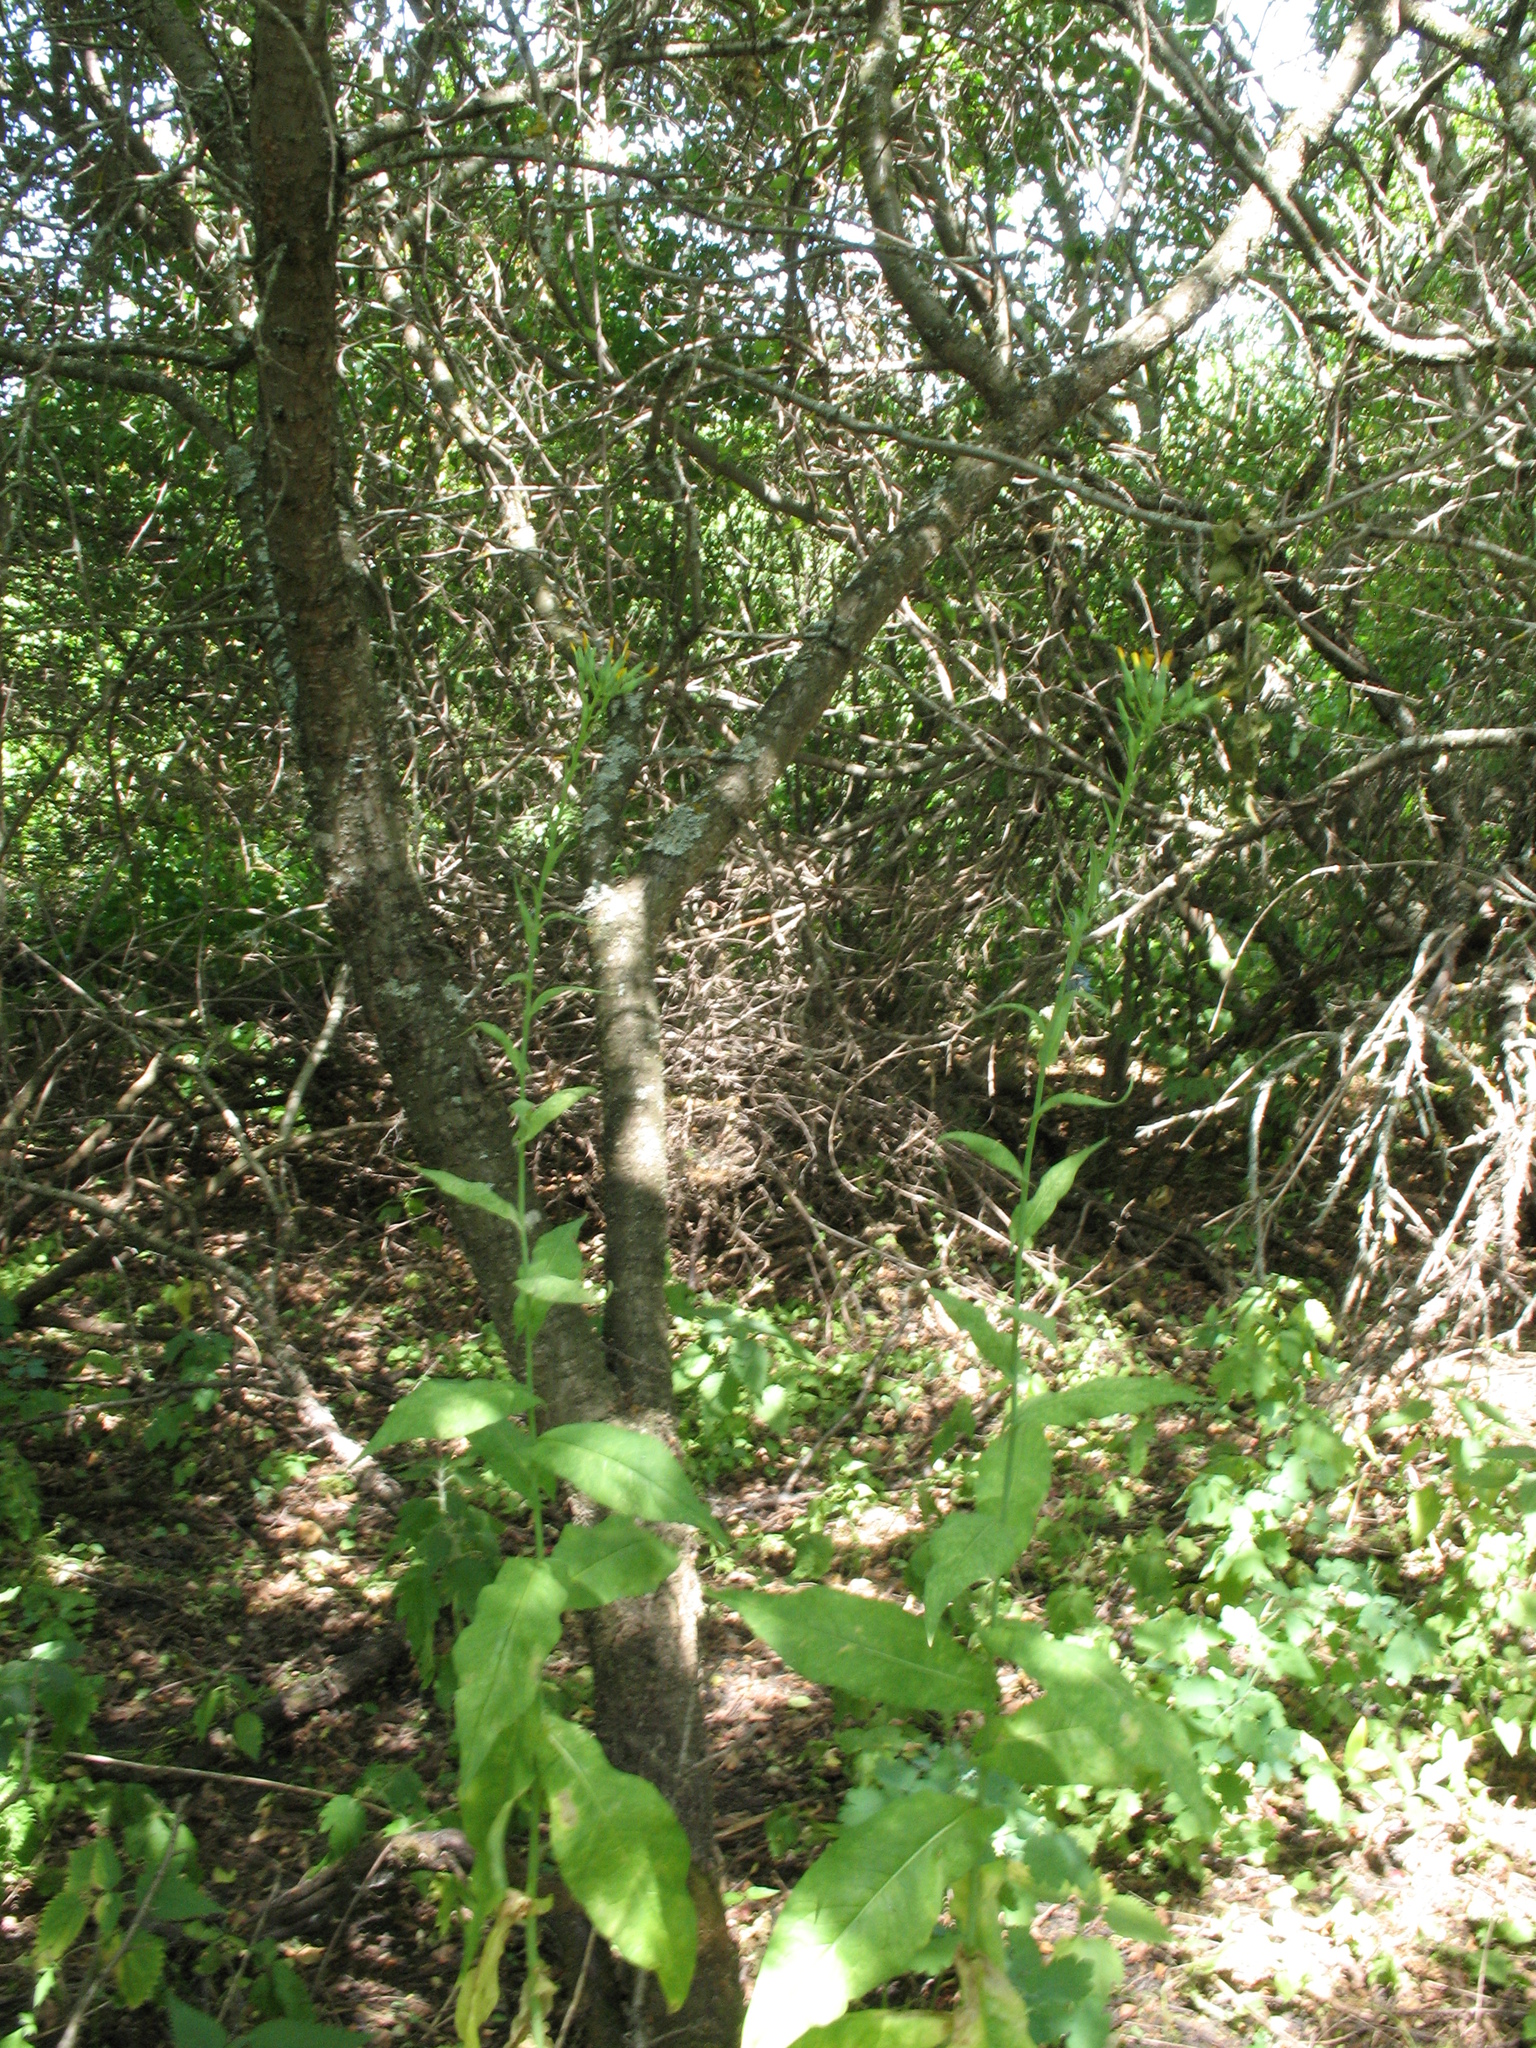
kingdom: Plantae
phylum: Tracheophyta
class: Magnoliopsida
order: Asterales
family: Asteraceae
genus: Lactuca
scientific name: Lactuca quercina
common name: Wild lettuce
